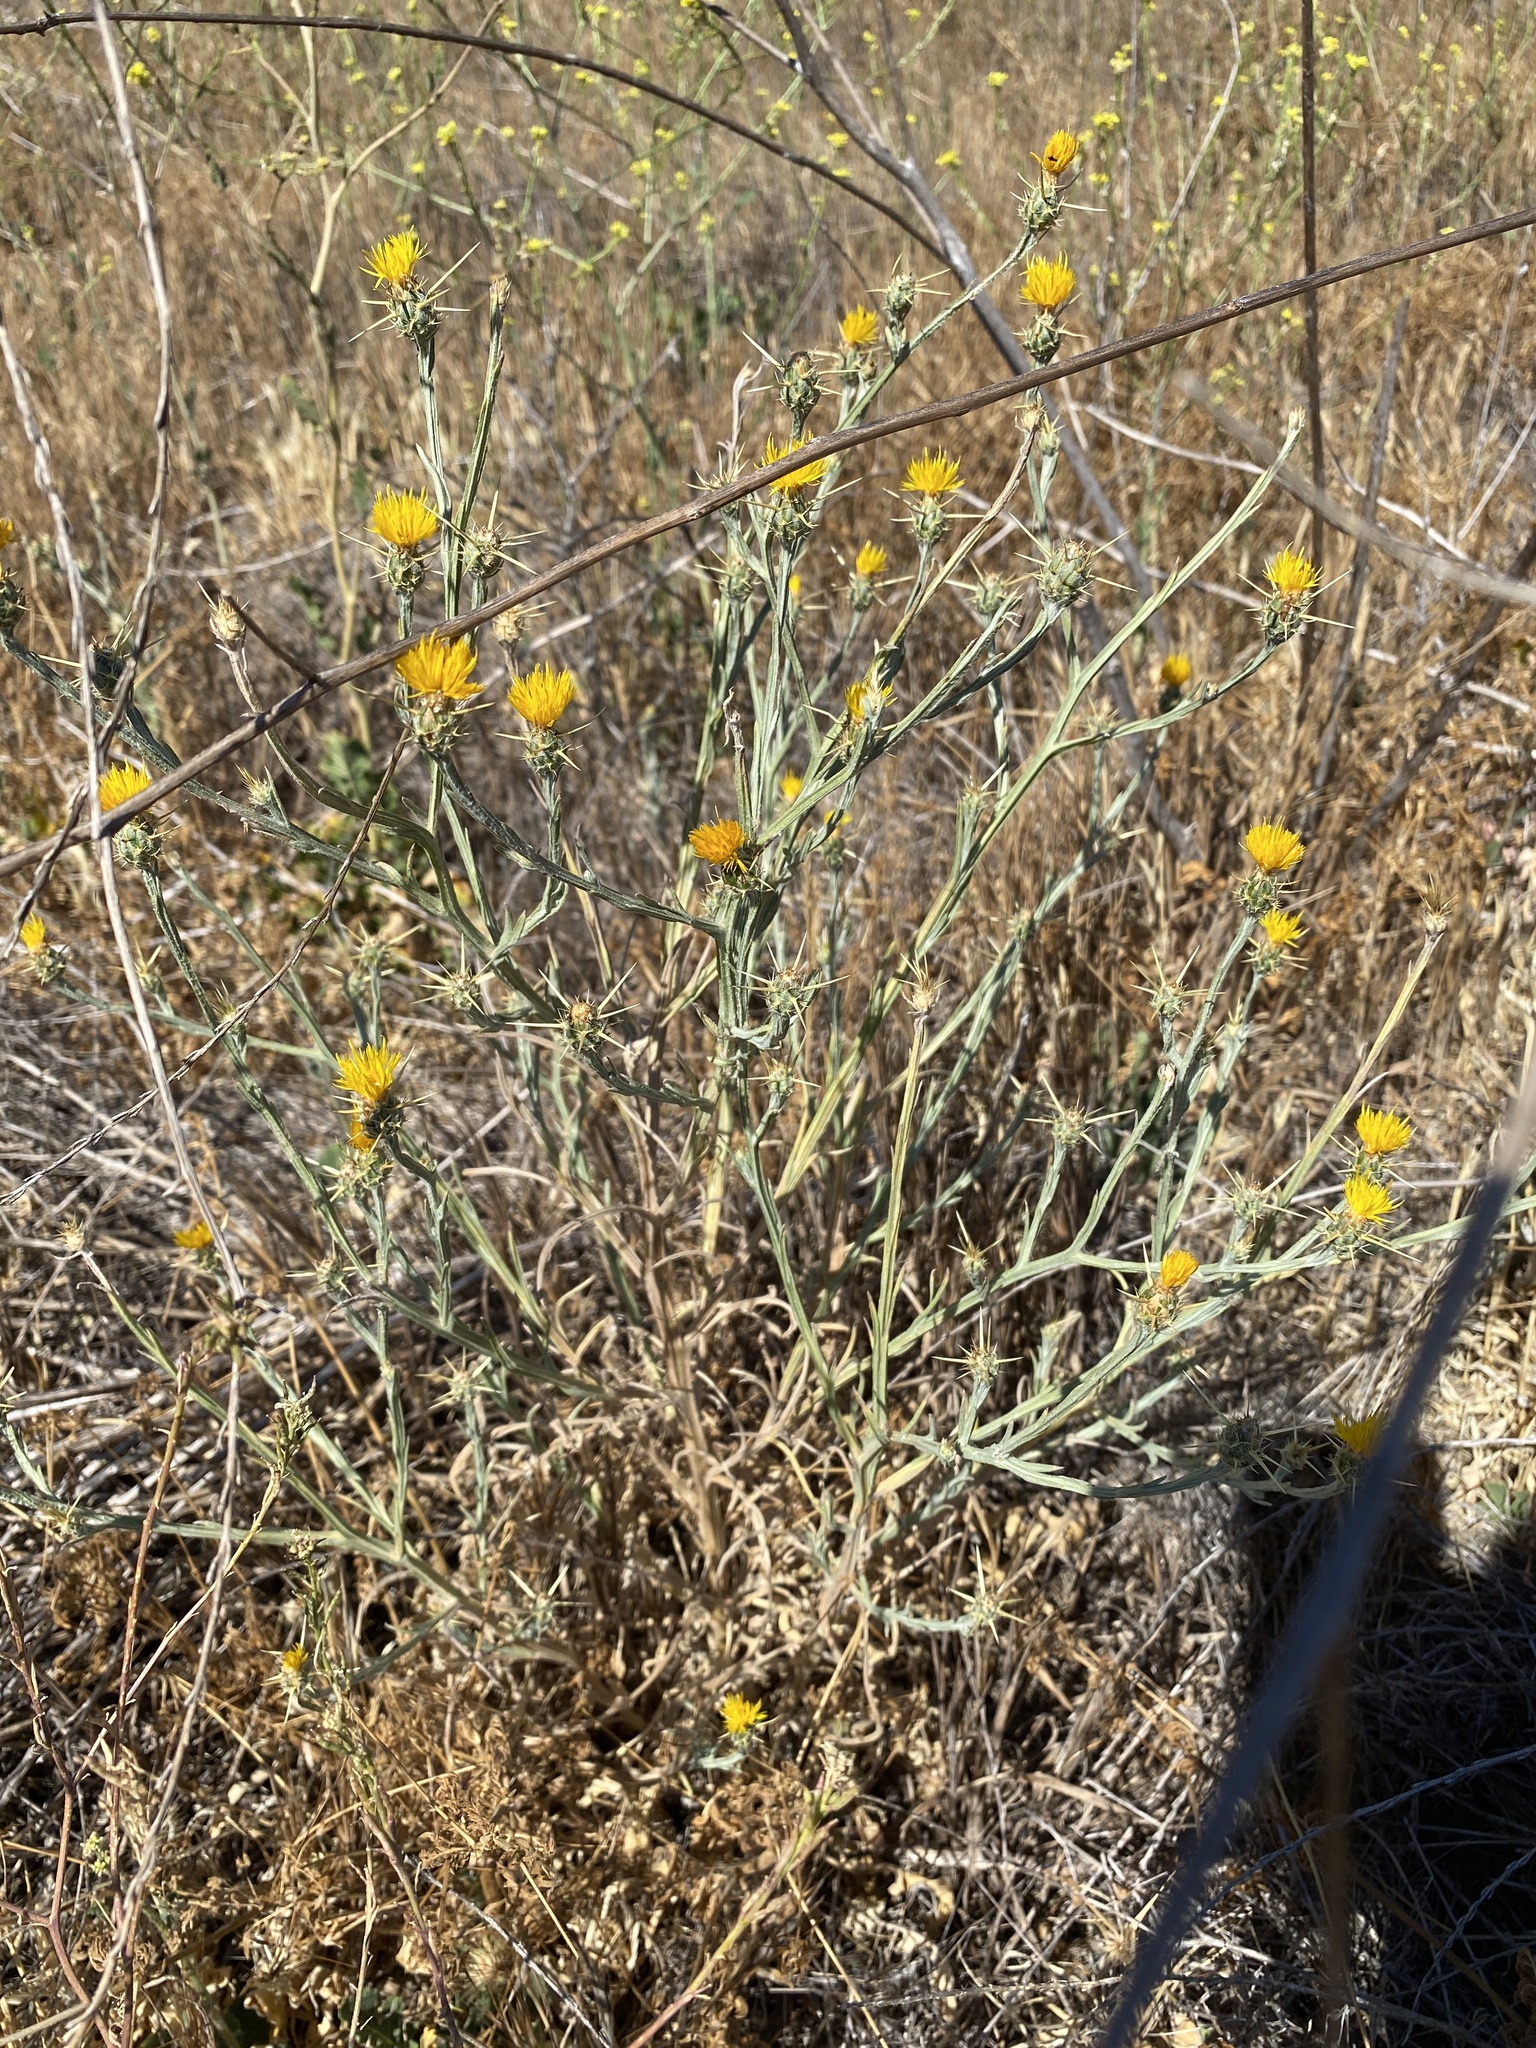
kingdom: Plantae
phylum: Tracheophyta
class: Magnoliopsida
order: Asterales
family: Asteraceae
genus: Centaurea
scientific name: Centaurea solstitialis
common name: Yellow star-thistle
